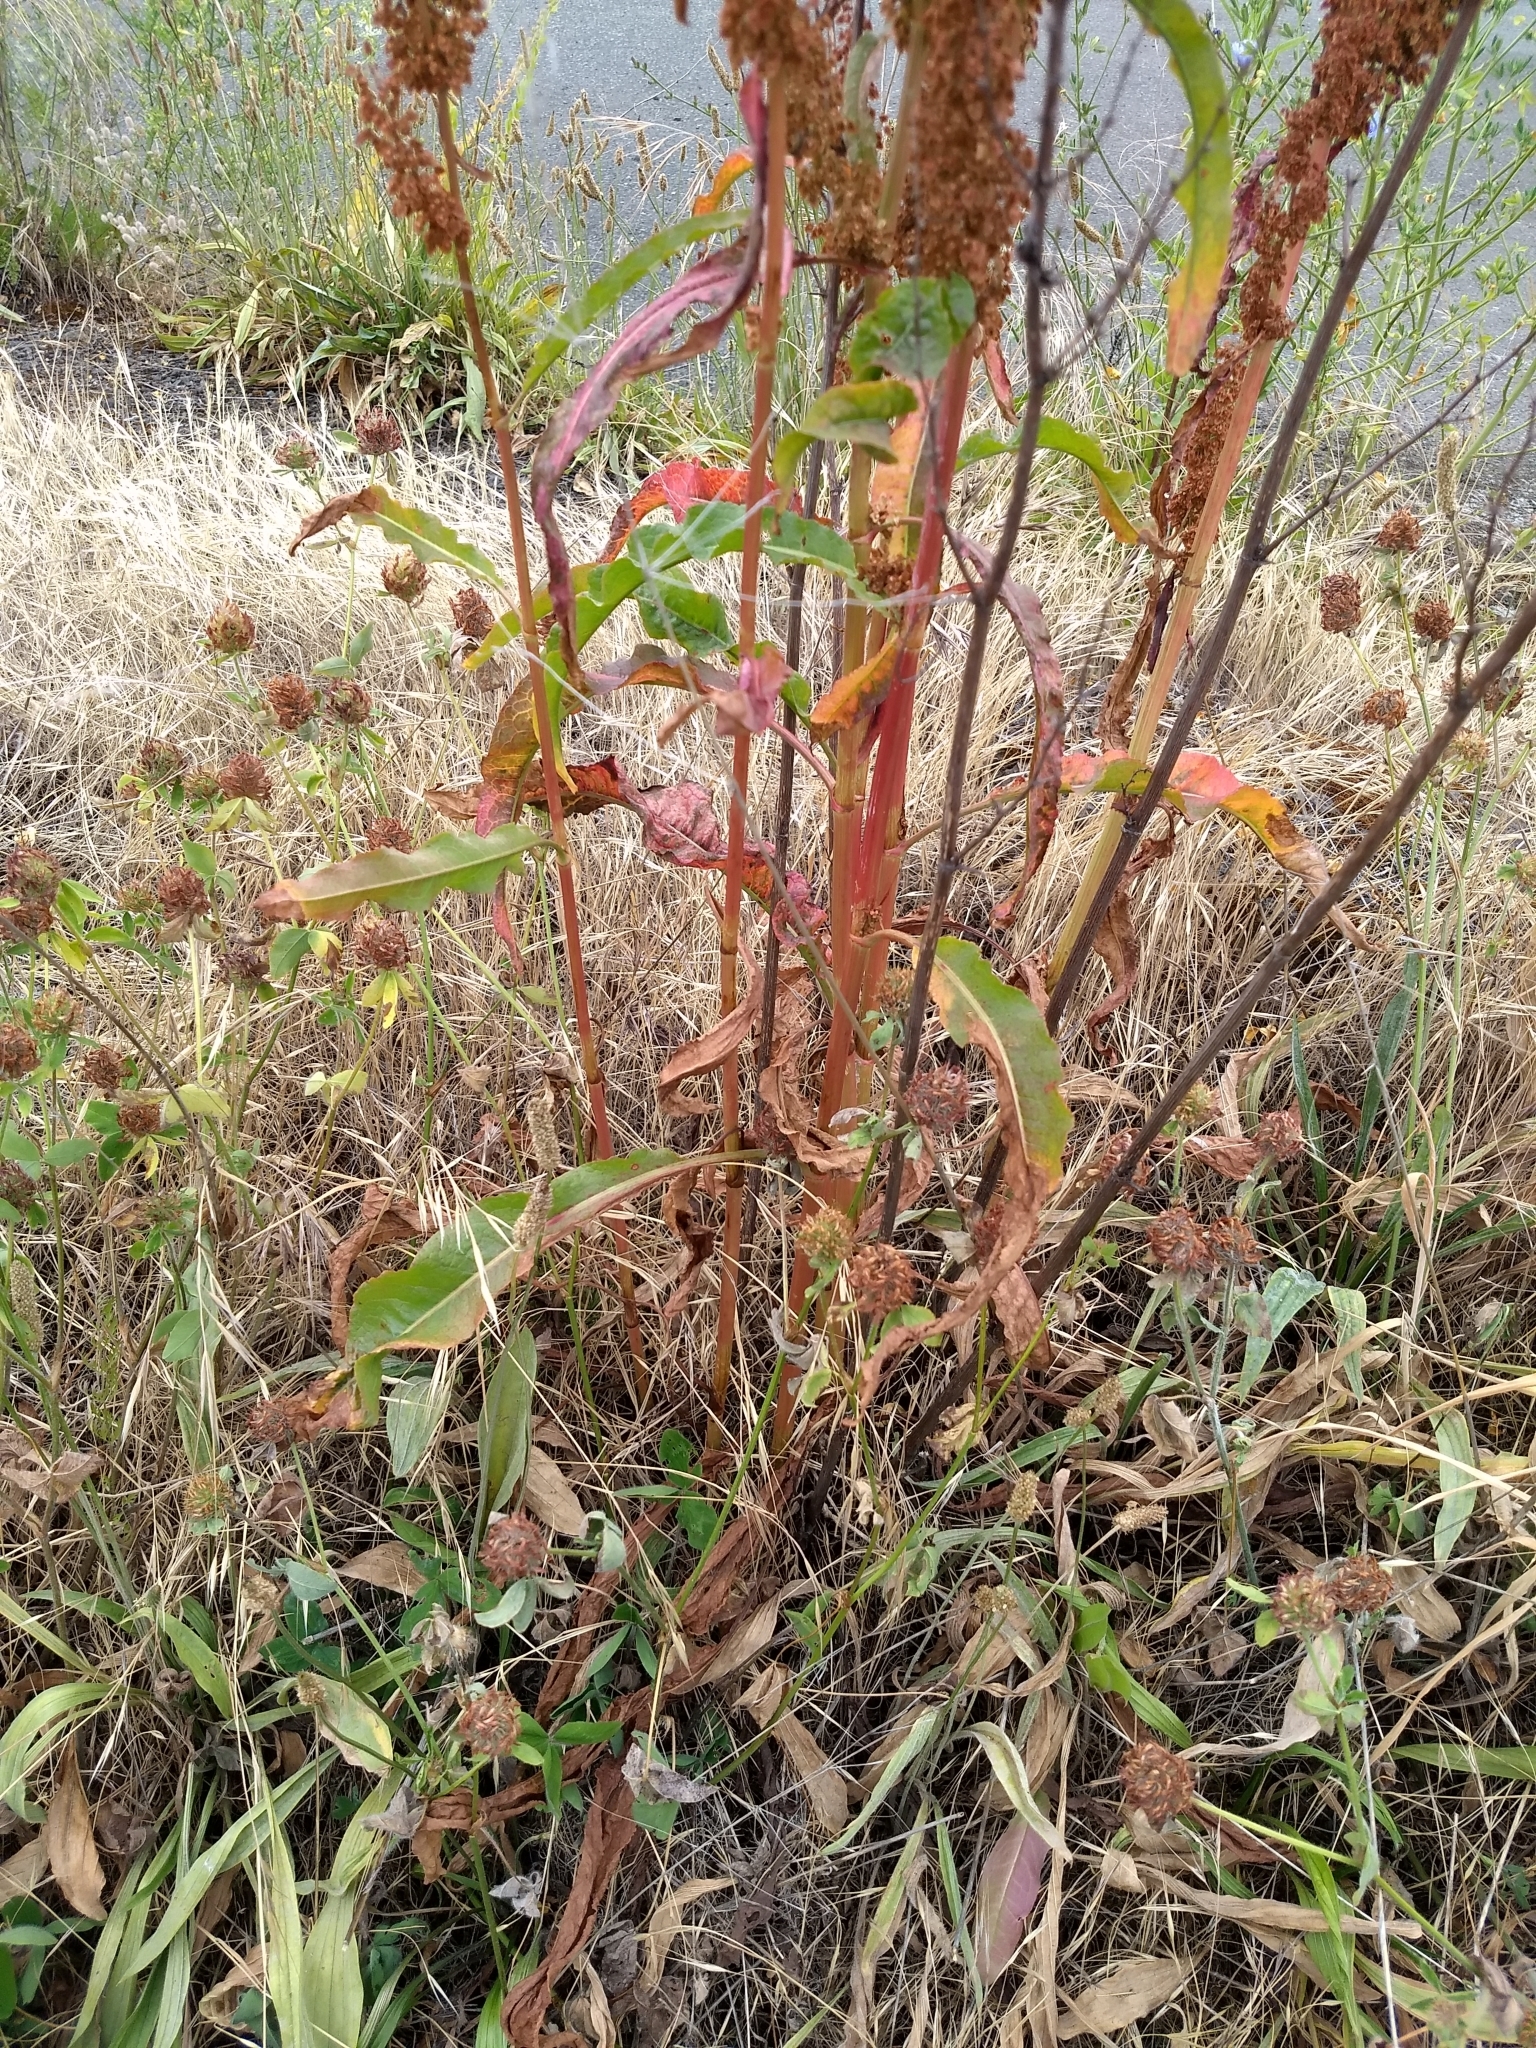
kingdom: Plantae
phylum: Tracheophyta
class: Magnoliopsida
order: Caryophyllales
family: Polygonaceae
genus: Rumex
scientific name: Rumex crispus
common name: Curled dock
